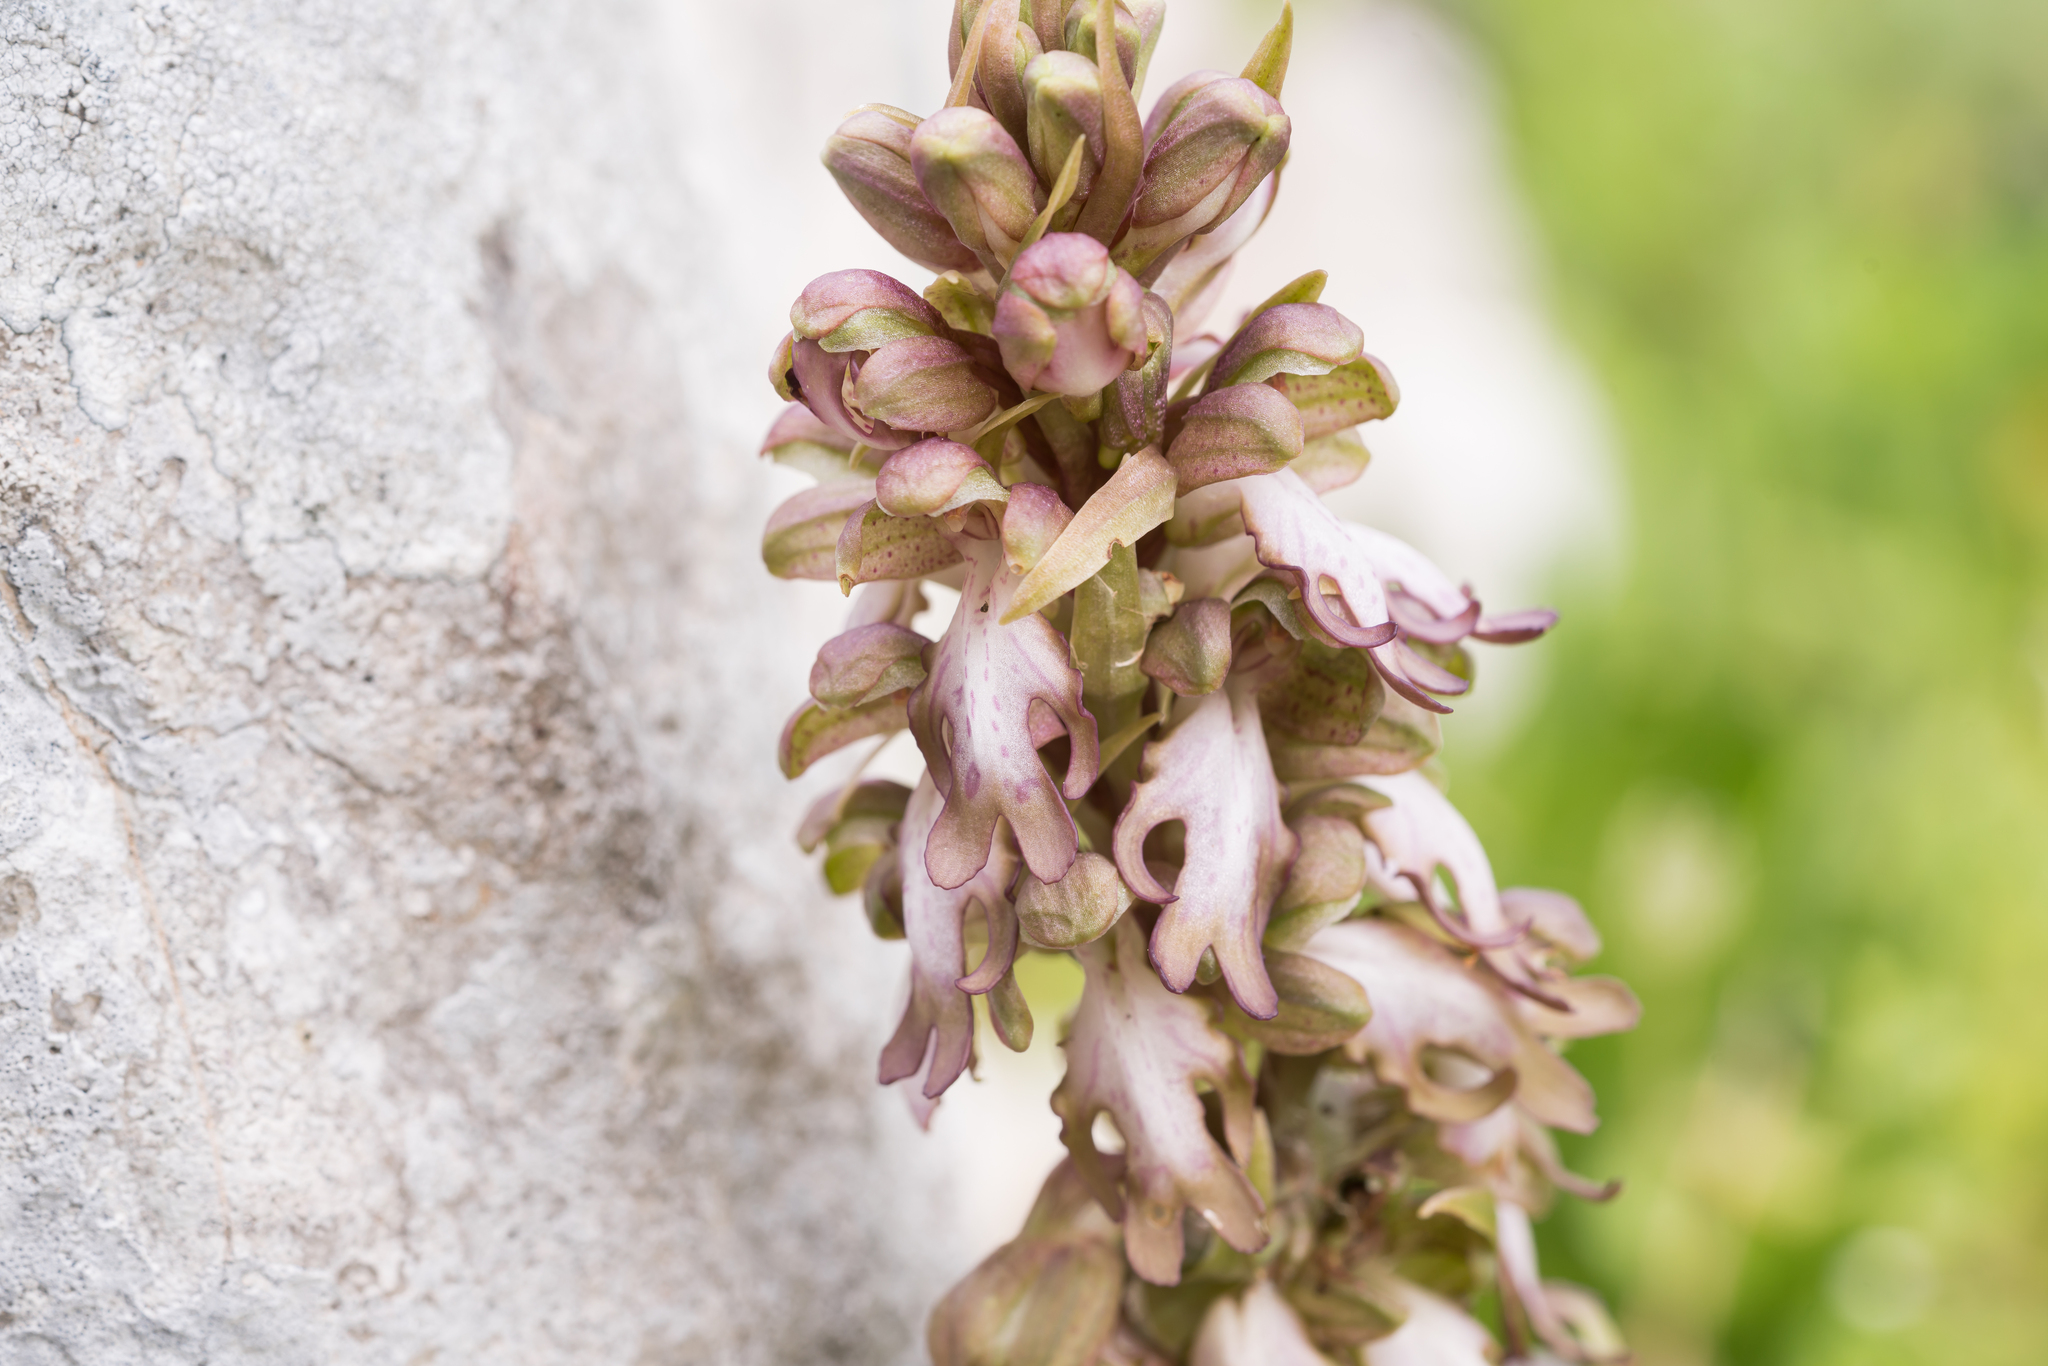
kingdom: Plantae
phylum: Tracheophyta
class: Liliopsida
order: Asparagales
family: Orchidaceae
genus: Himantoglossum
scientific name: Himantoglossum robertianum
